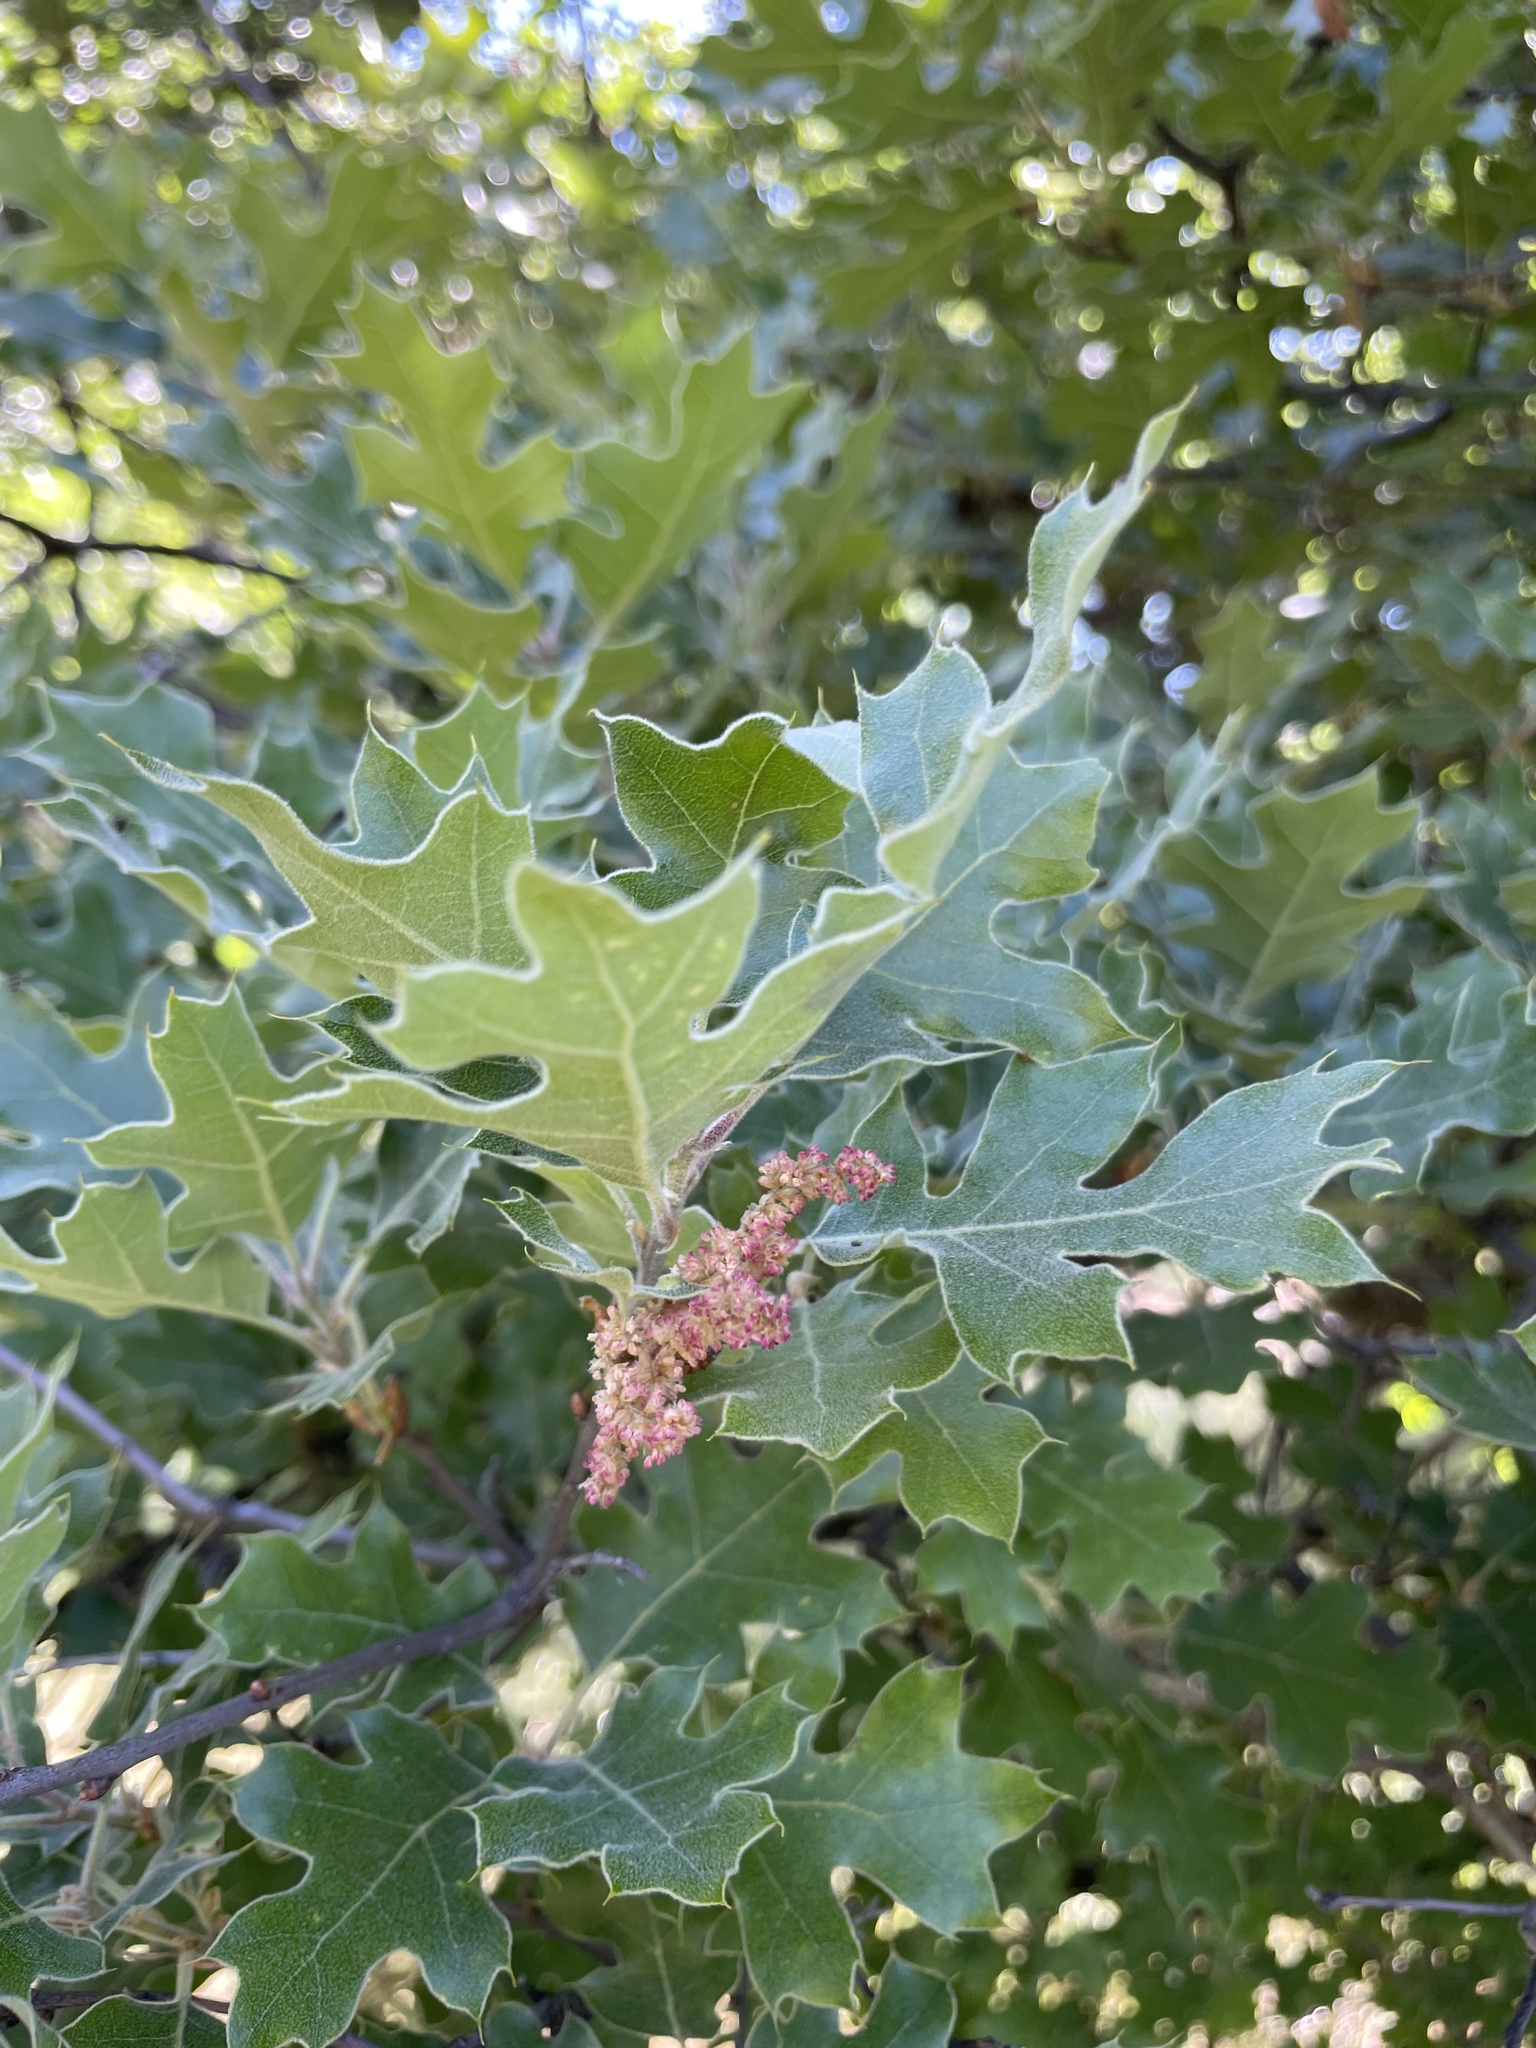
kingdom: Plantae
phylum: Tracheophyta
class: Magnoliopsida
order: Fagales
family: Fagaceae
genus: Quercus
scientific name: Quercus kelloggii
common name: California black oak
